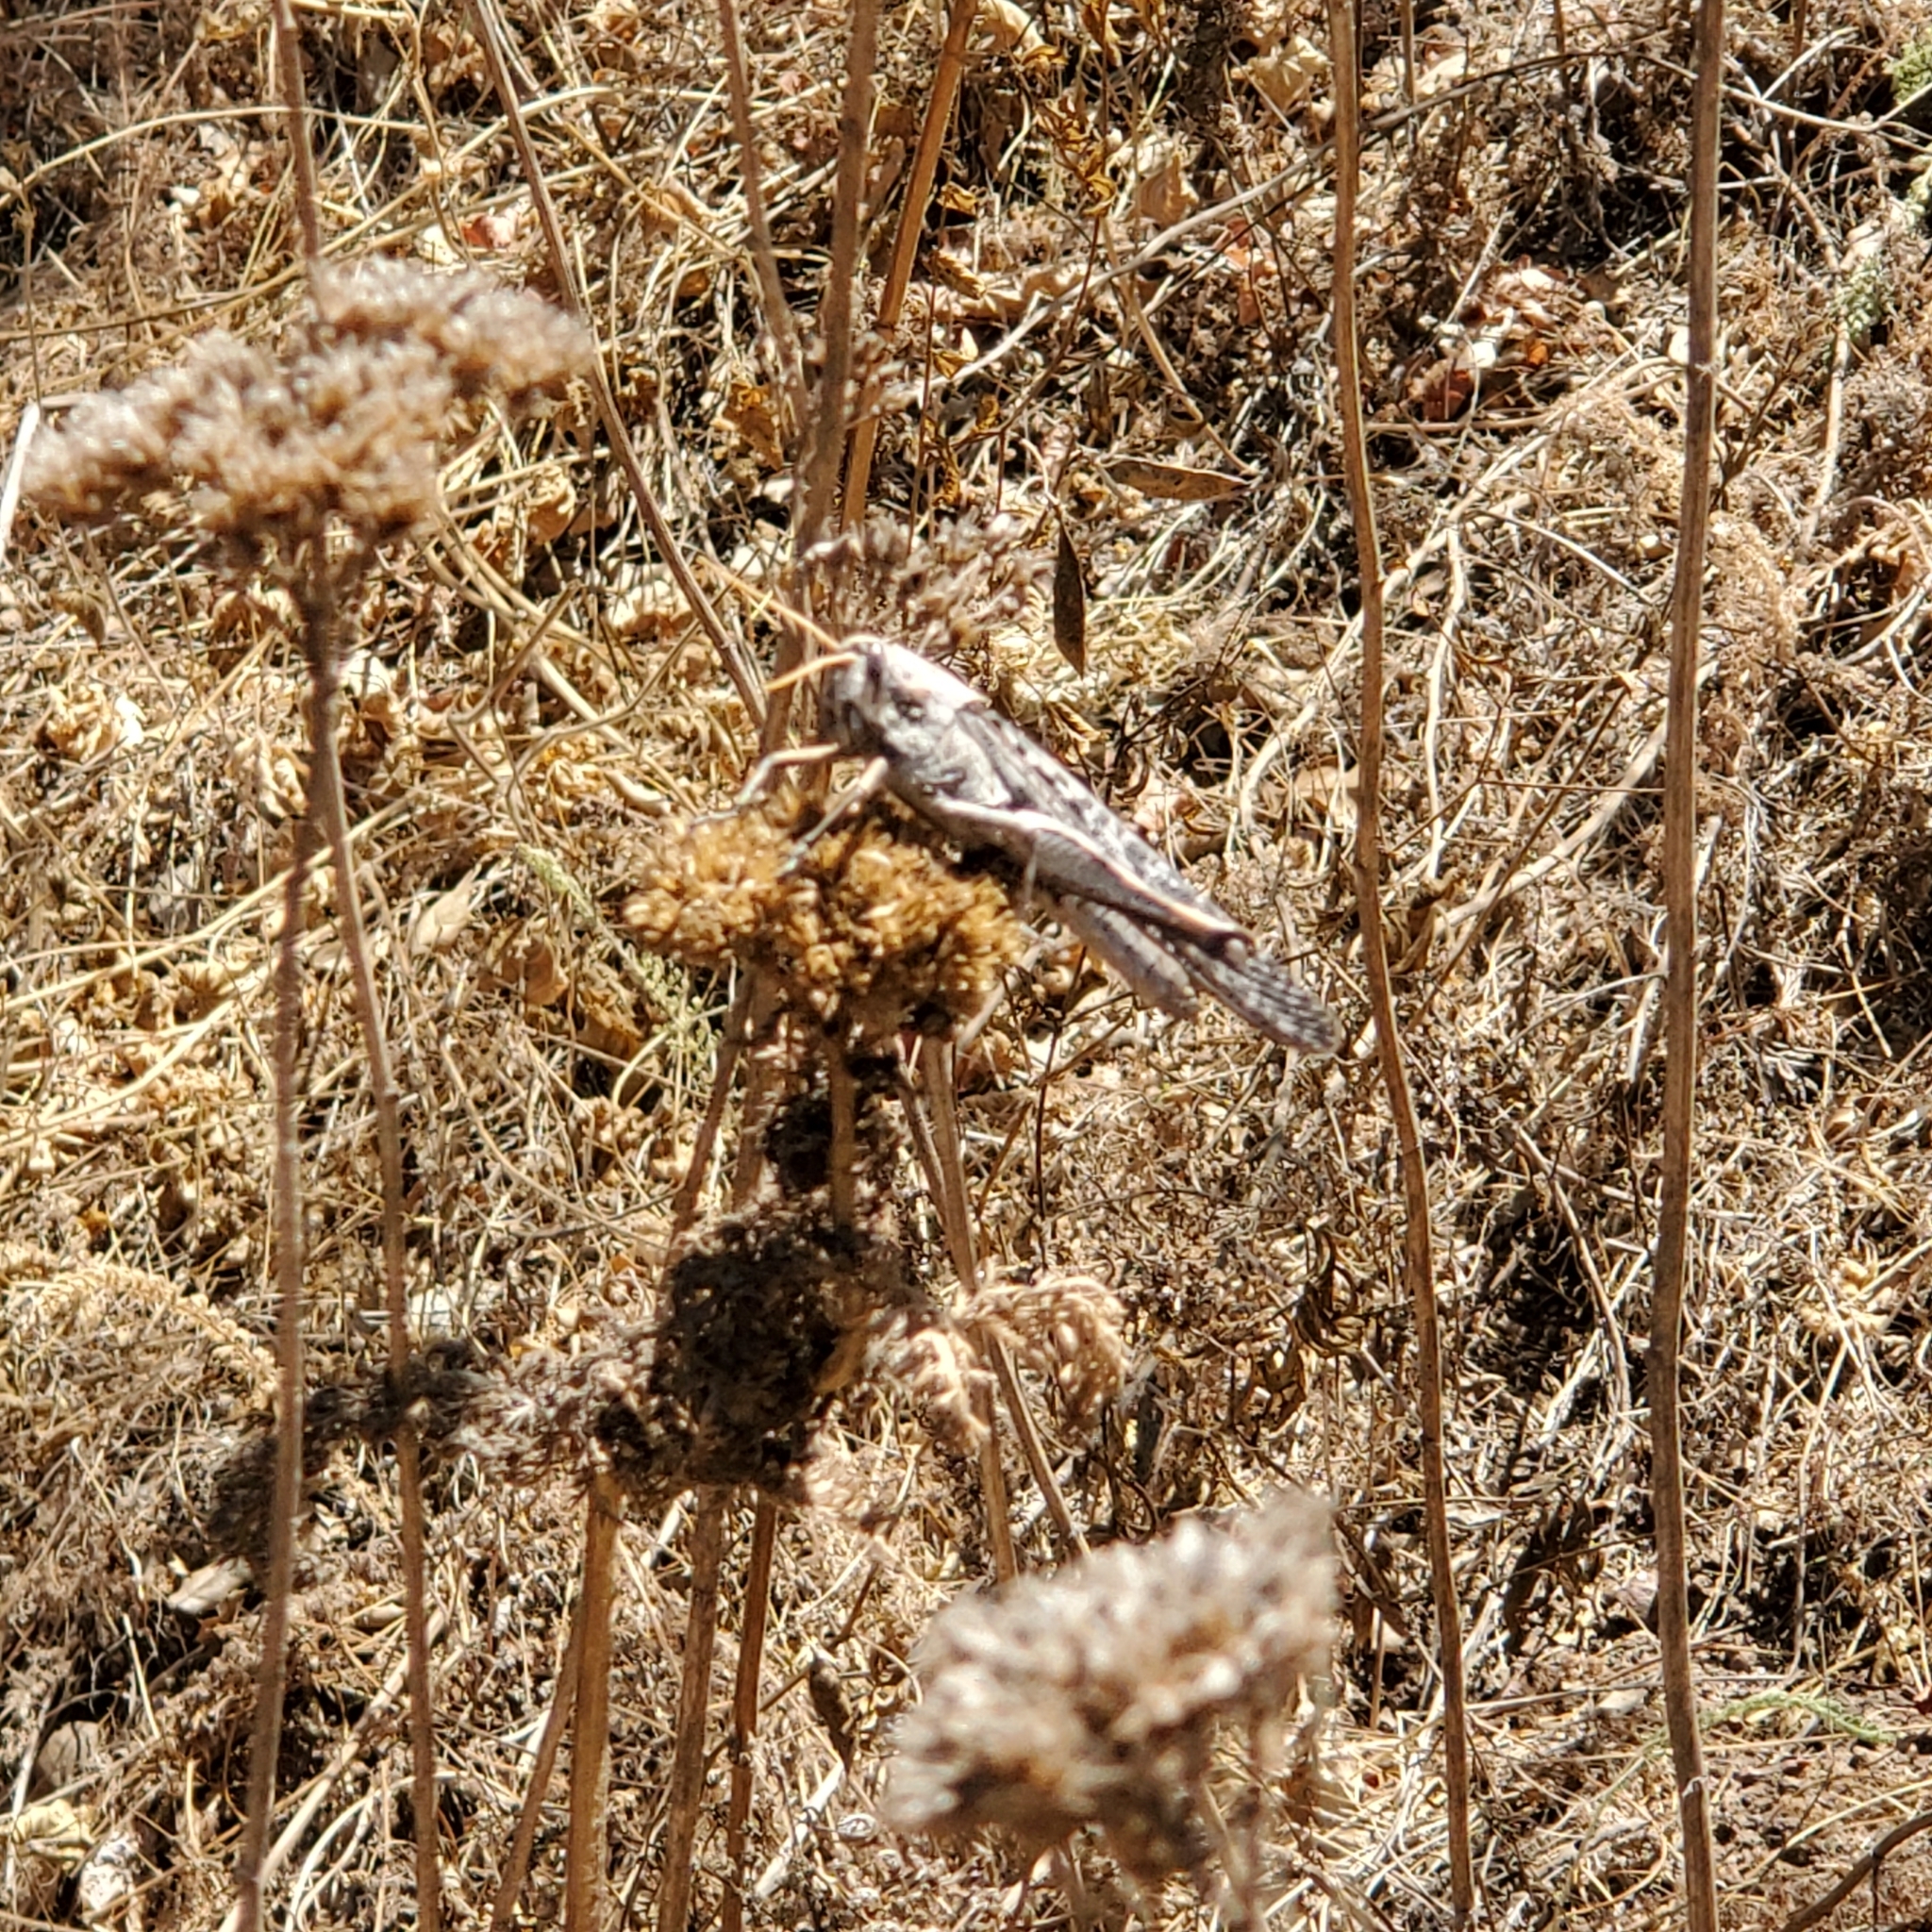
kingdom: Animalia
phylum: Arthropoda
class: Insecta
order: Orthoptera
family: Acrididae
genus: Schistocerca
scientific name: Schistocerca nitens
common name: Vagrant grasshopper
